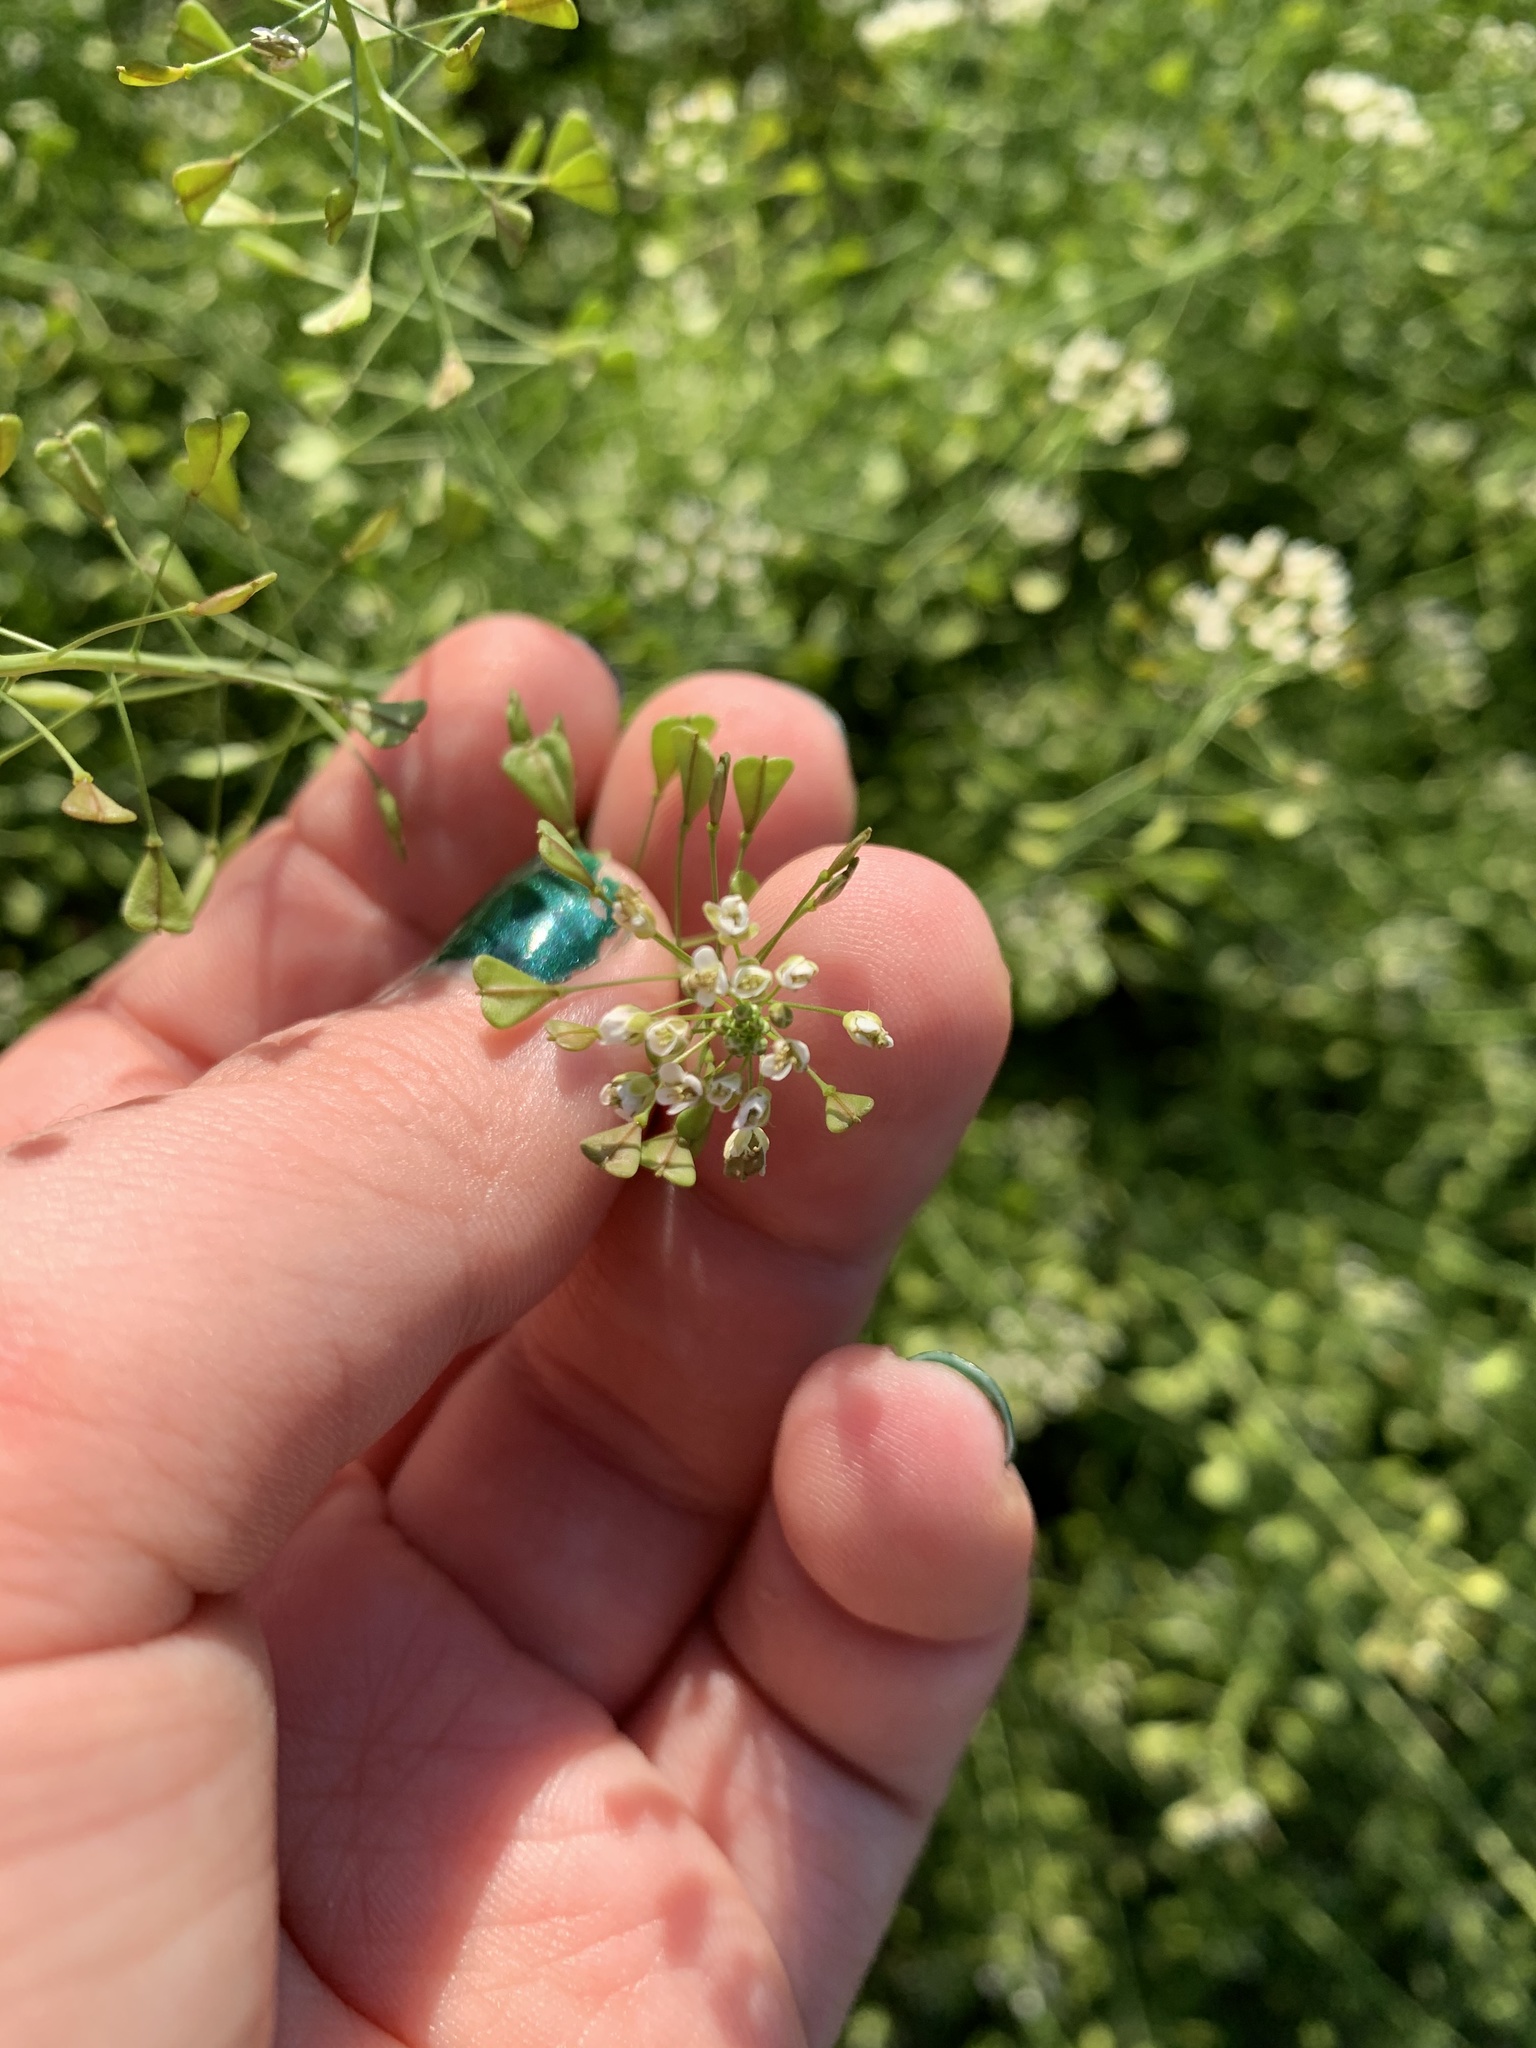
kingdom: Plantae
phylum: Tracheophyta
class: Magnoliopsida
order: Brassicales
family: Brassicaceae
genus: Capsella
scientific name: Capsella bursa-pastoris
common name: Shepherd's purse
